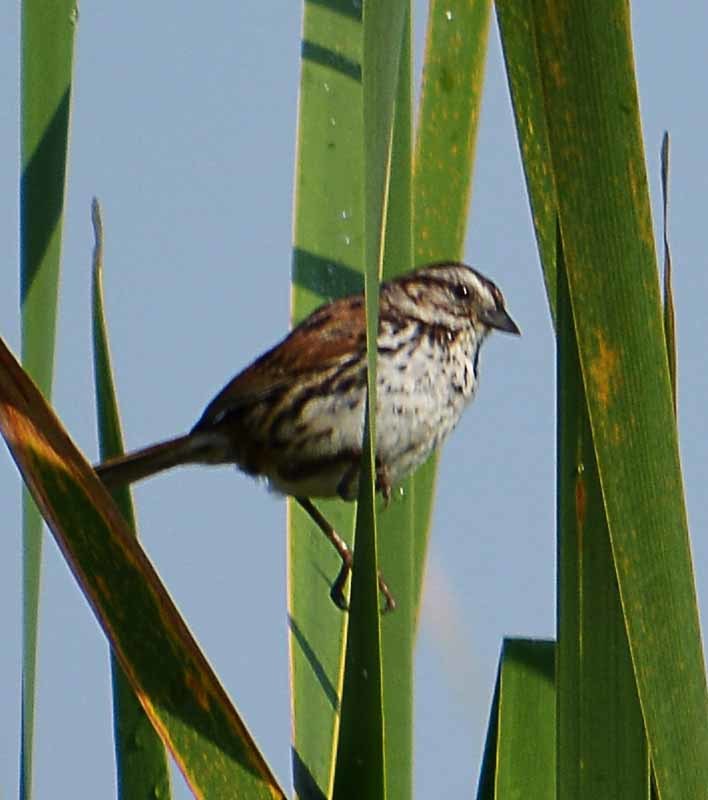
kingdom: Animalia
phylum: Chordata
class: Aves
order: Passeriformes
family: Passerellidae
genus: Melospiza
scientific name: Melospiza melodia
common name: Song sparrow
